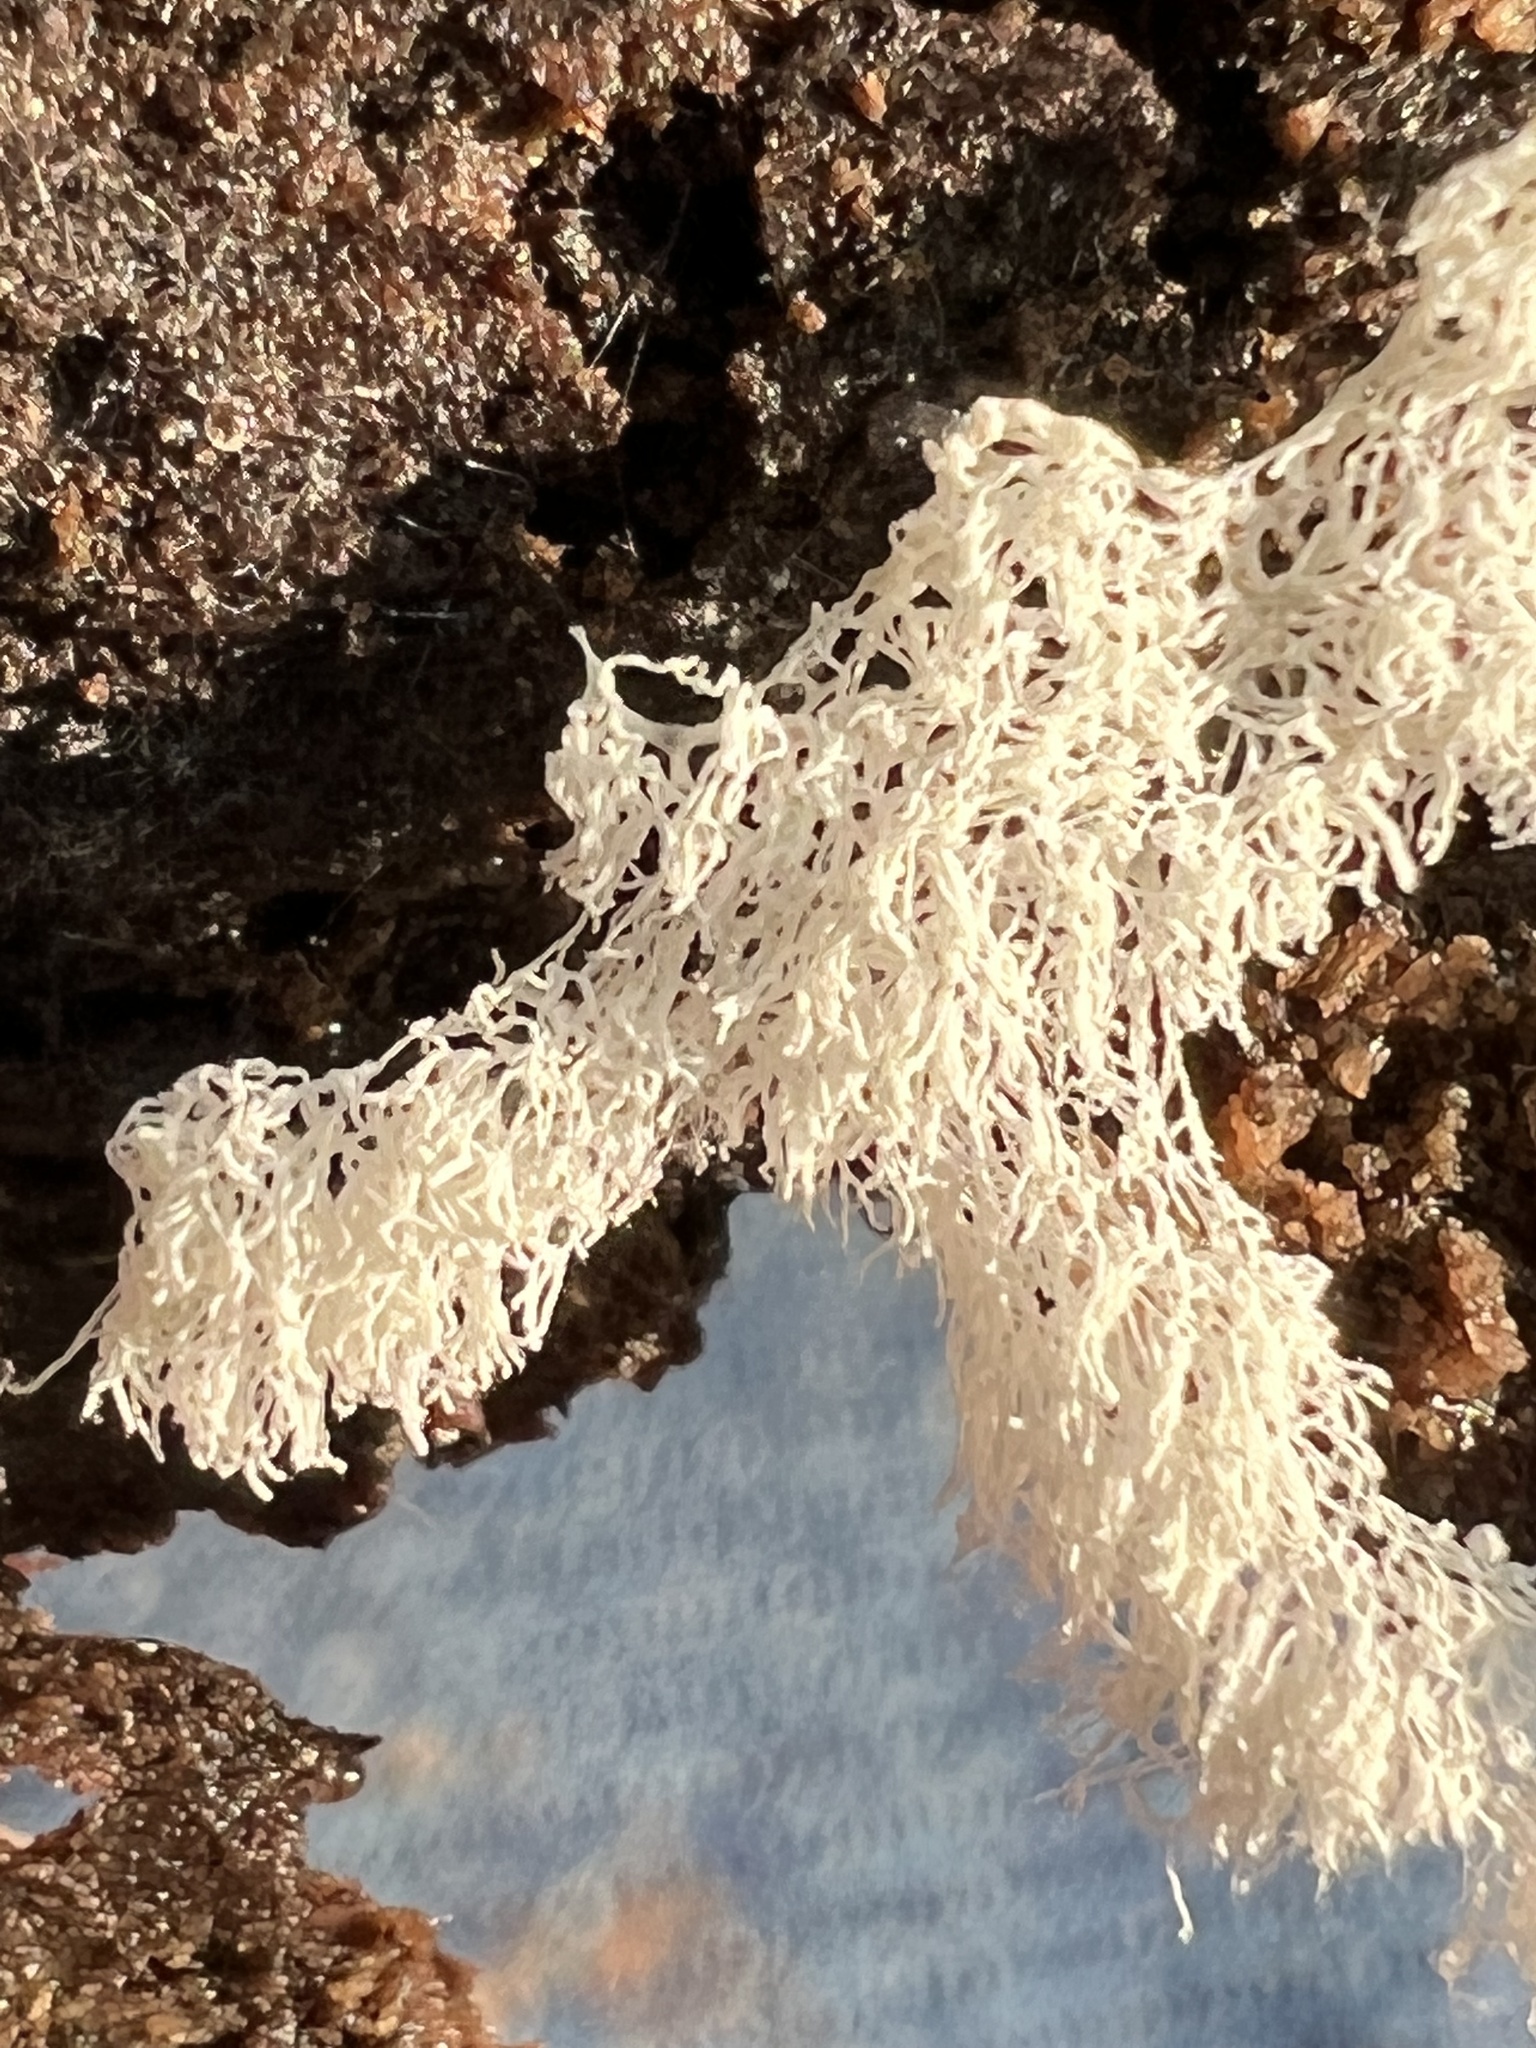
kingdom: Protozoa
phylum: Mycetozoa
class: Protosteliomycetes
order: Ceratiomyxales
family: Ceratiomyxaceae
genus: Ceratiomyxa
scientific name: Ceratiomyxa fruticulosa
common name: Honeycomb coral slime mold
